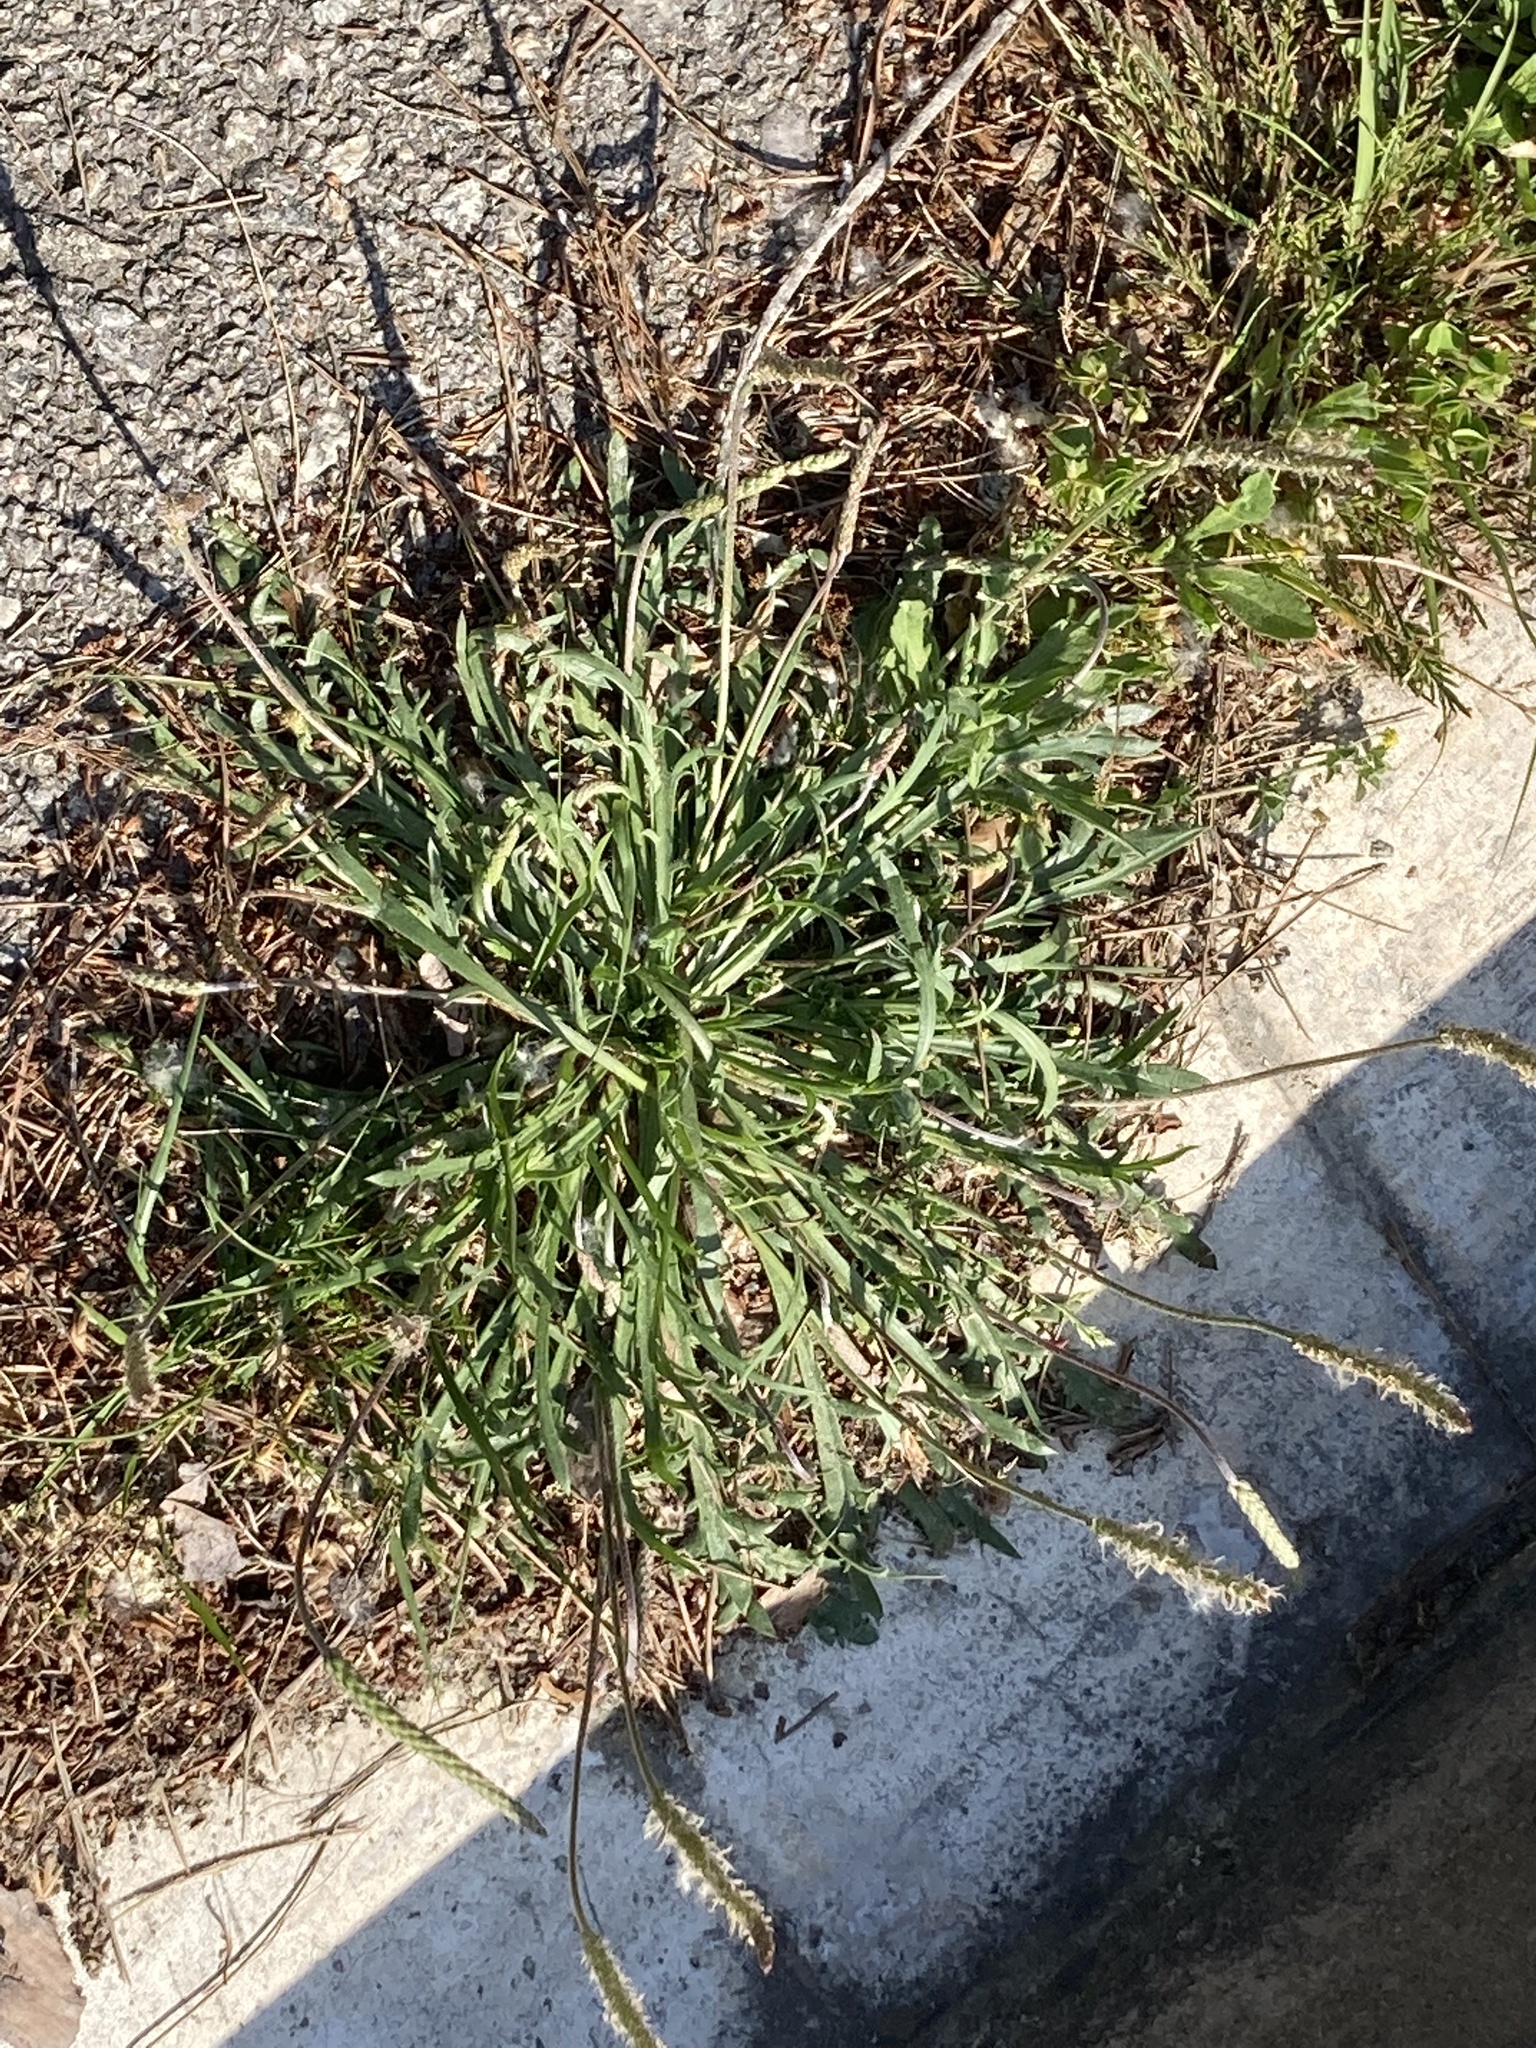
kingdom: Plantae
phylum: Tracheophyta
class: Magnoliopsida
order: Lamiales
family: Plantaginaceae
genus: Plantago
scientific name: Plantago coronopus
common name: Buck's-horn plantain
